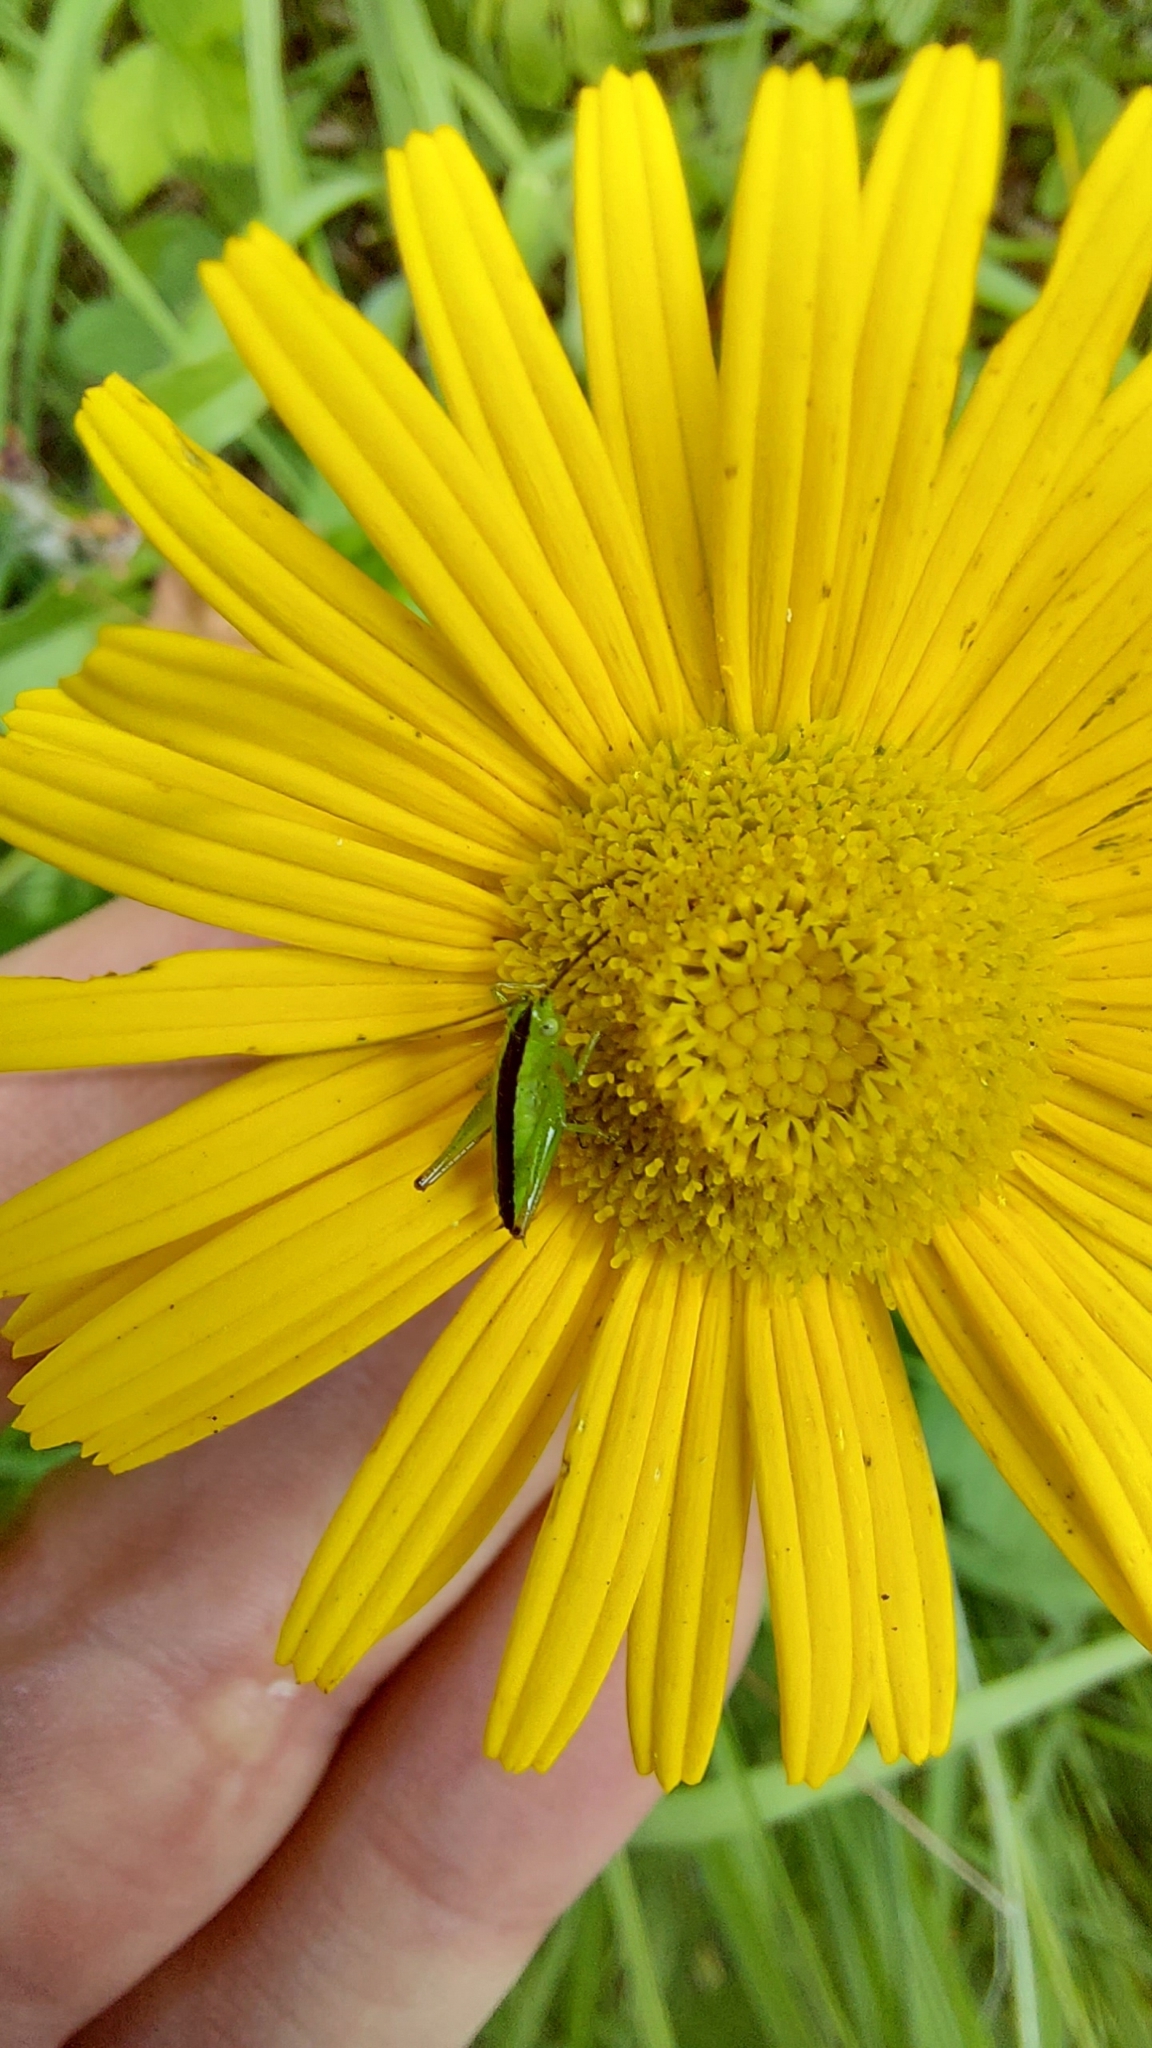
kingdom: Animalia
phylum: Arthropoda
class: Insecta
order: Orthoptera
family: Tettigoniidae
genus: Conocephalus
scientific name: Conocephalus fuscus
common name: Long-winged conehead
